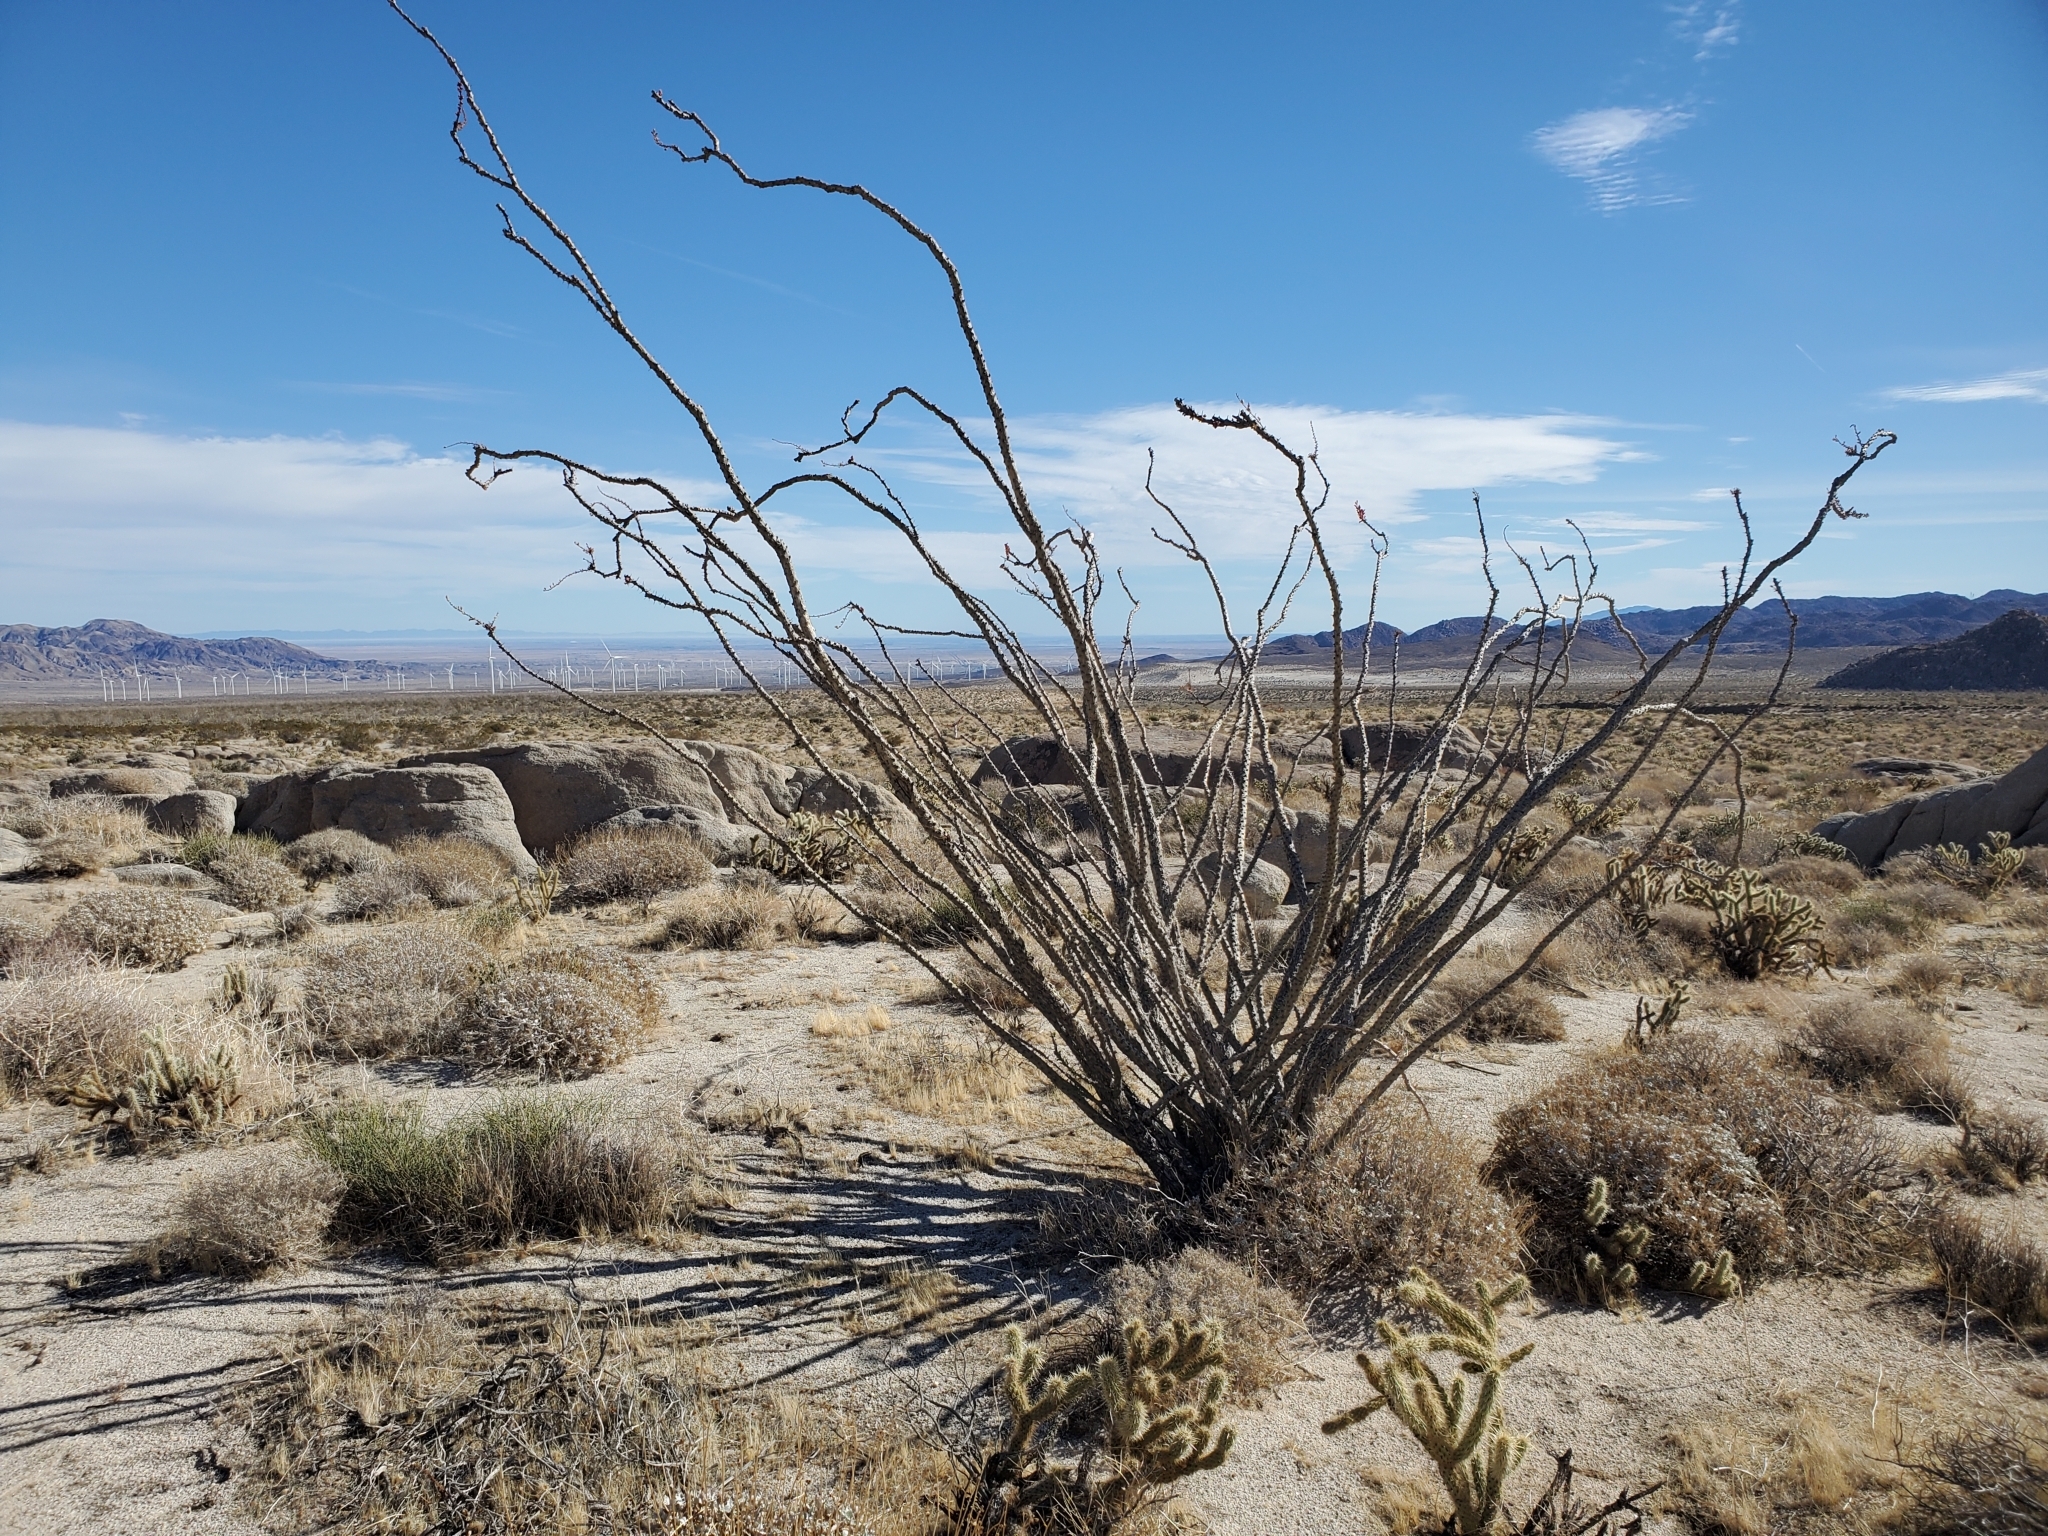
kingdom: Plantae
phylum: Tracheophyta
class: Magnoliopsida
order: Ericales
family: Fouquieriaceae
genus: Fouquieria
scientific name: Fouquieria splendens
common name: Vine-cactus
